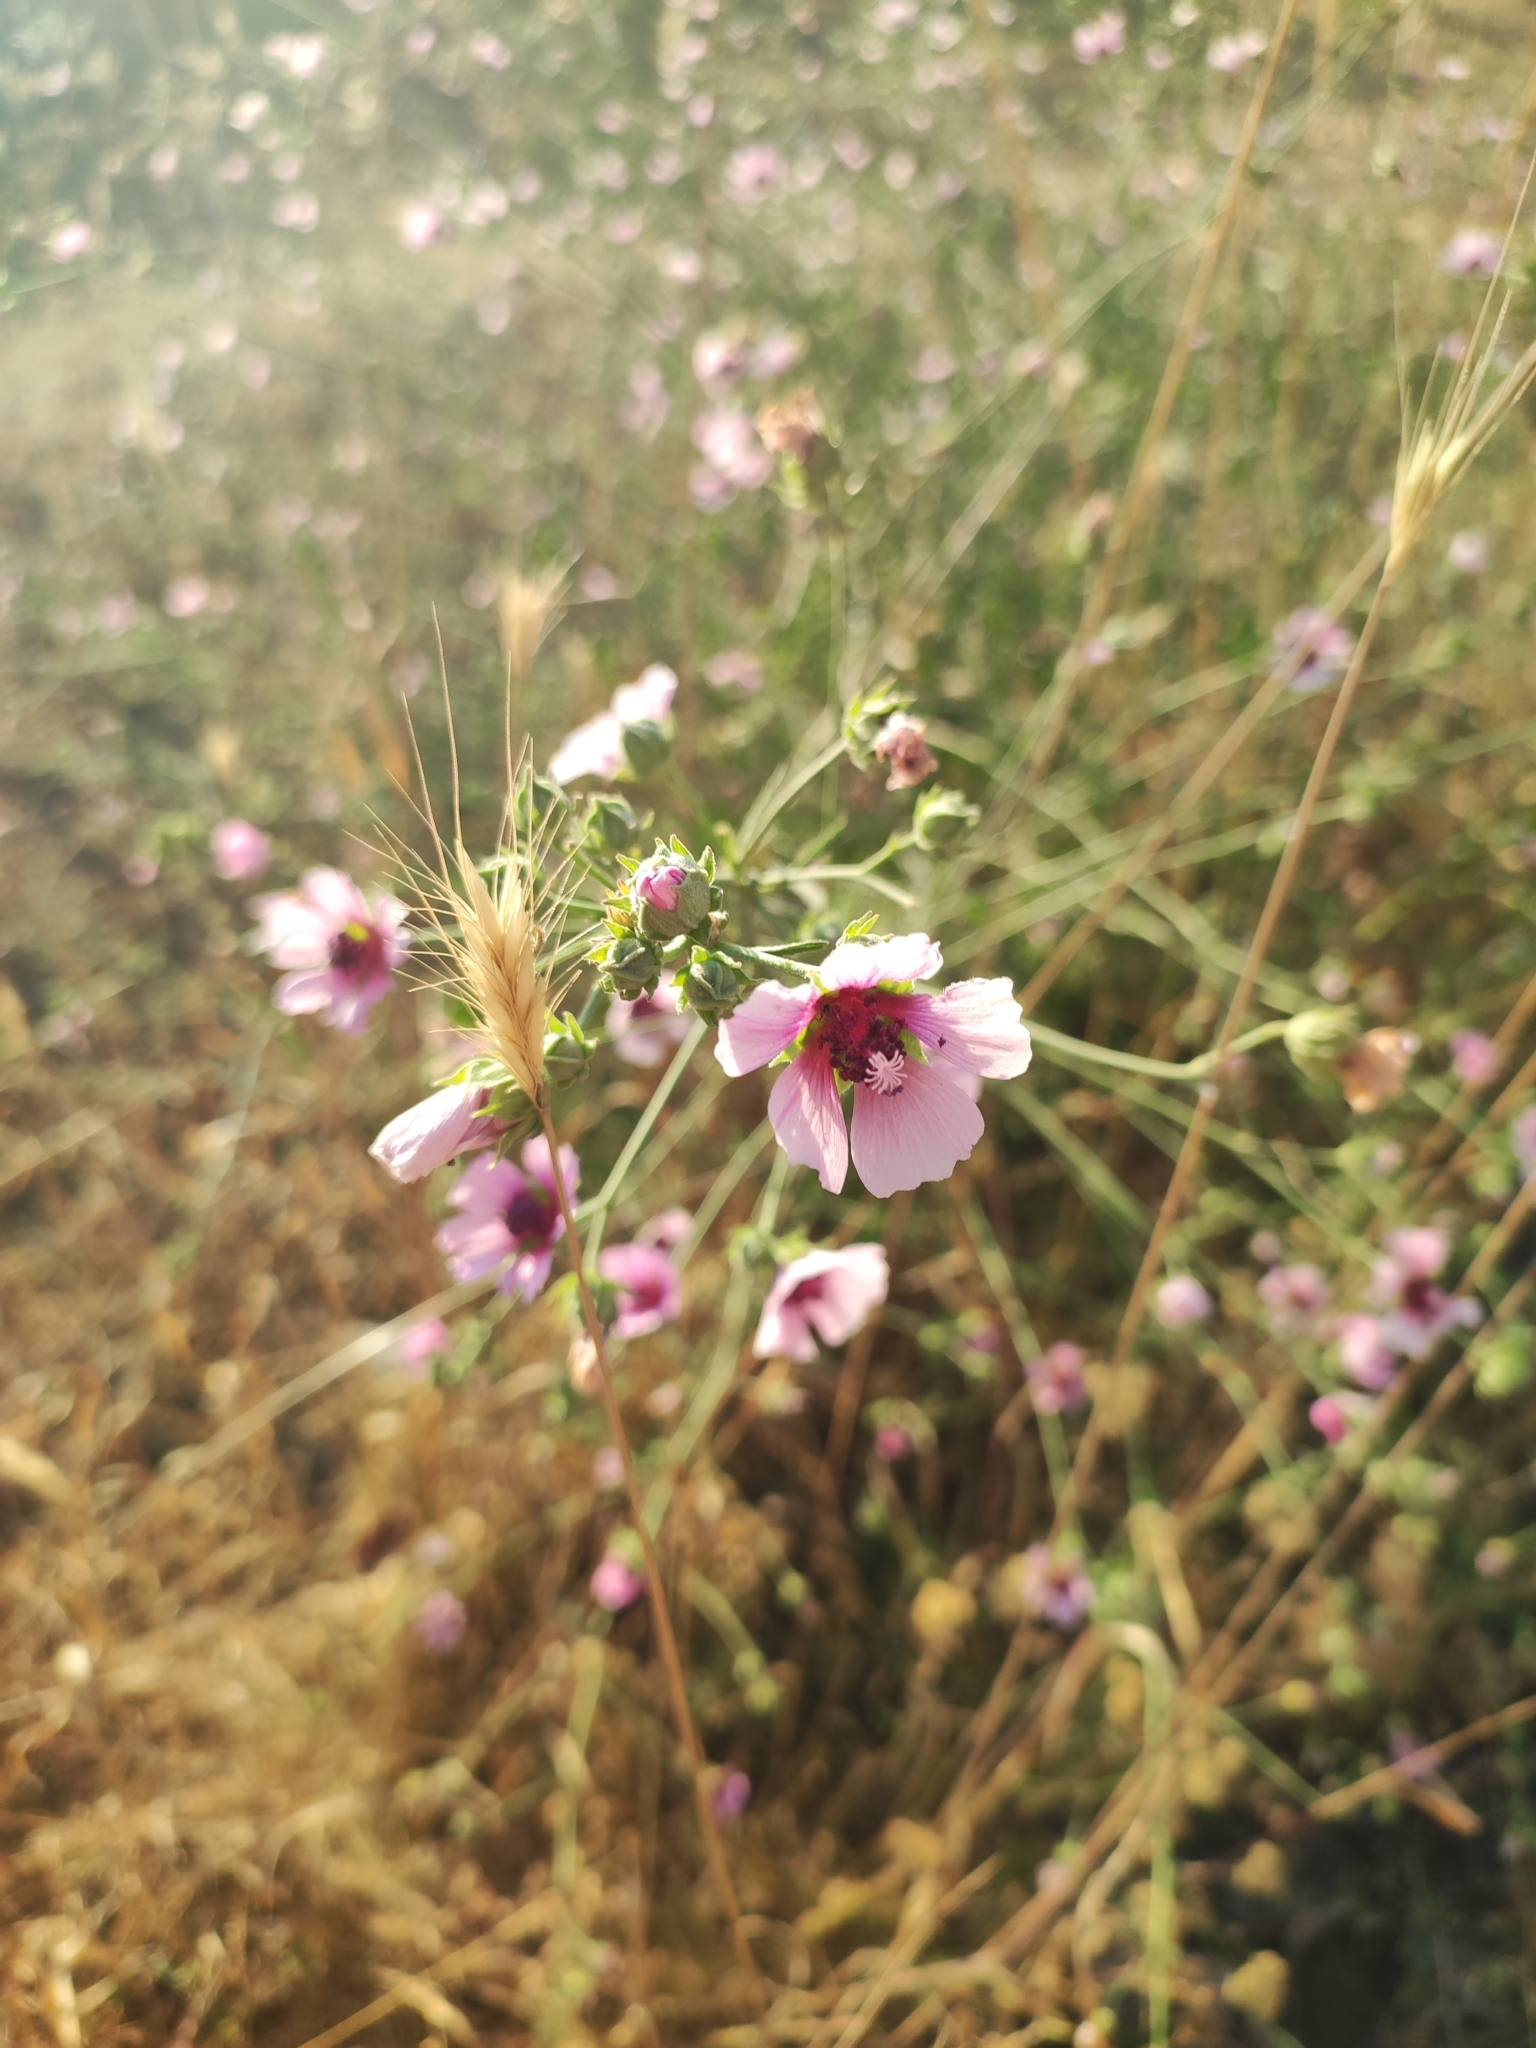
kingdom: Plantae
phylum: Tracheophyta
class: Magnoliopsida
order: Malvales
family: Malvaceae
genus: Althaea
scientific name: Althaea cannabina
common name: Palm-leaf marshmallow
